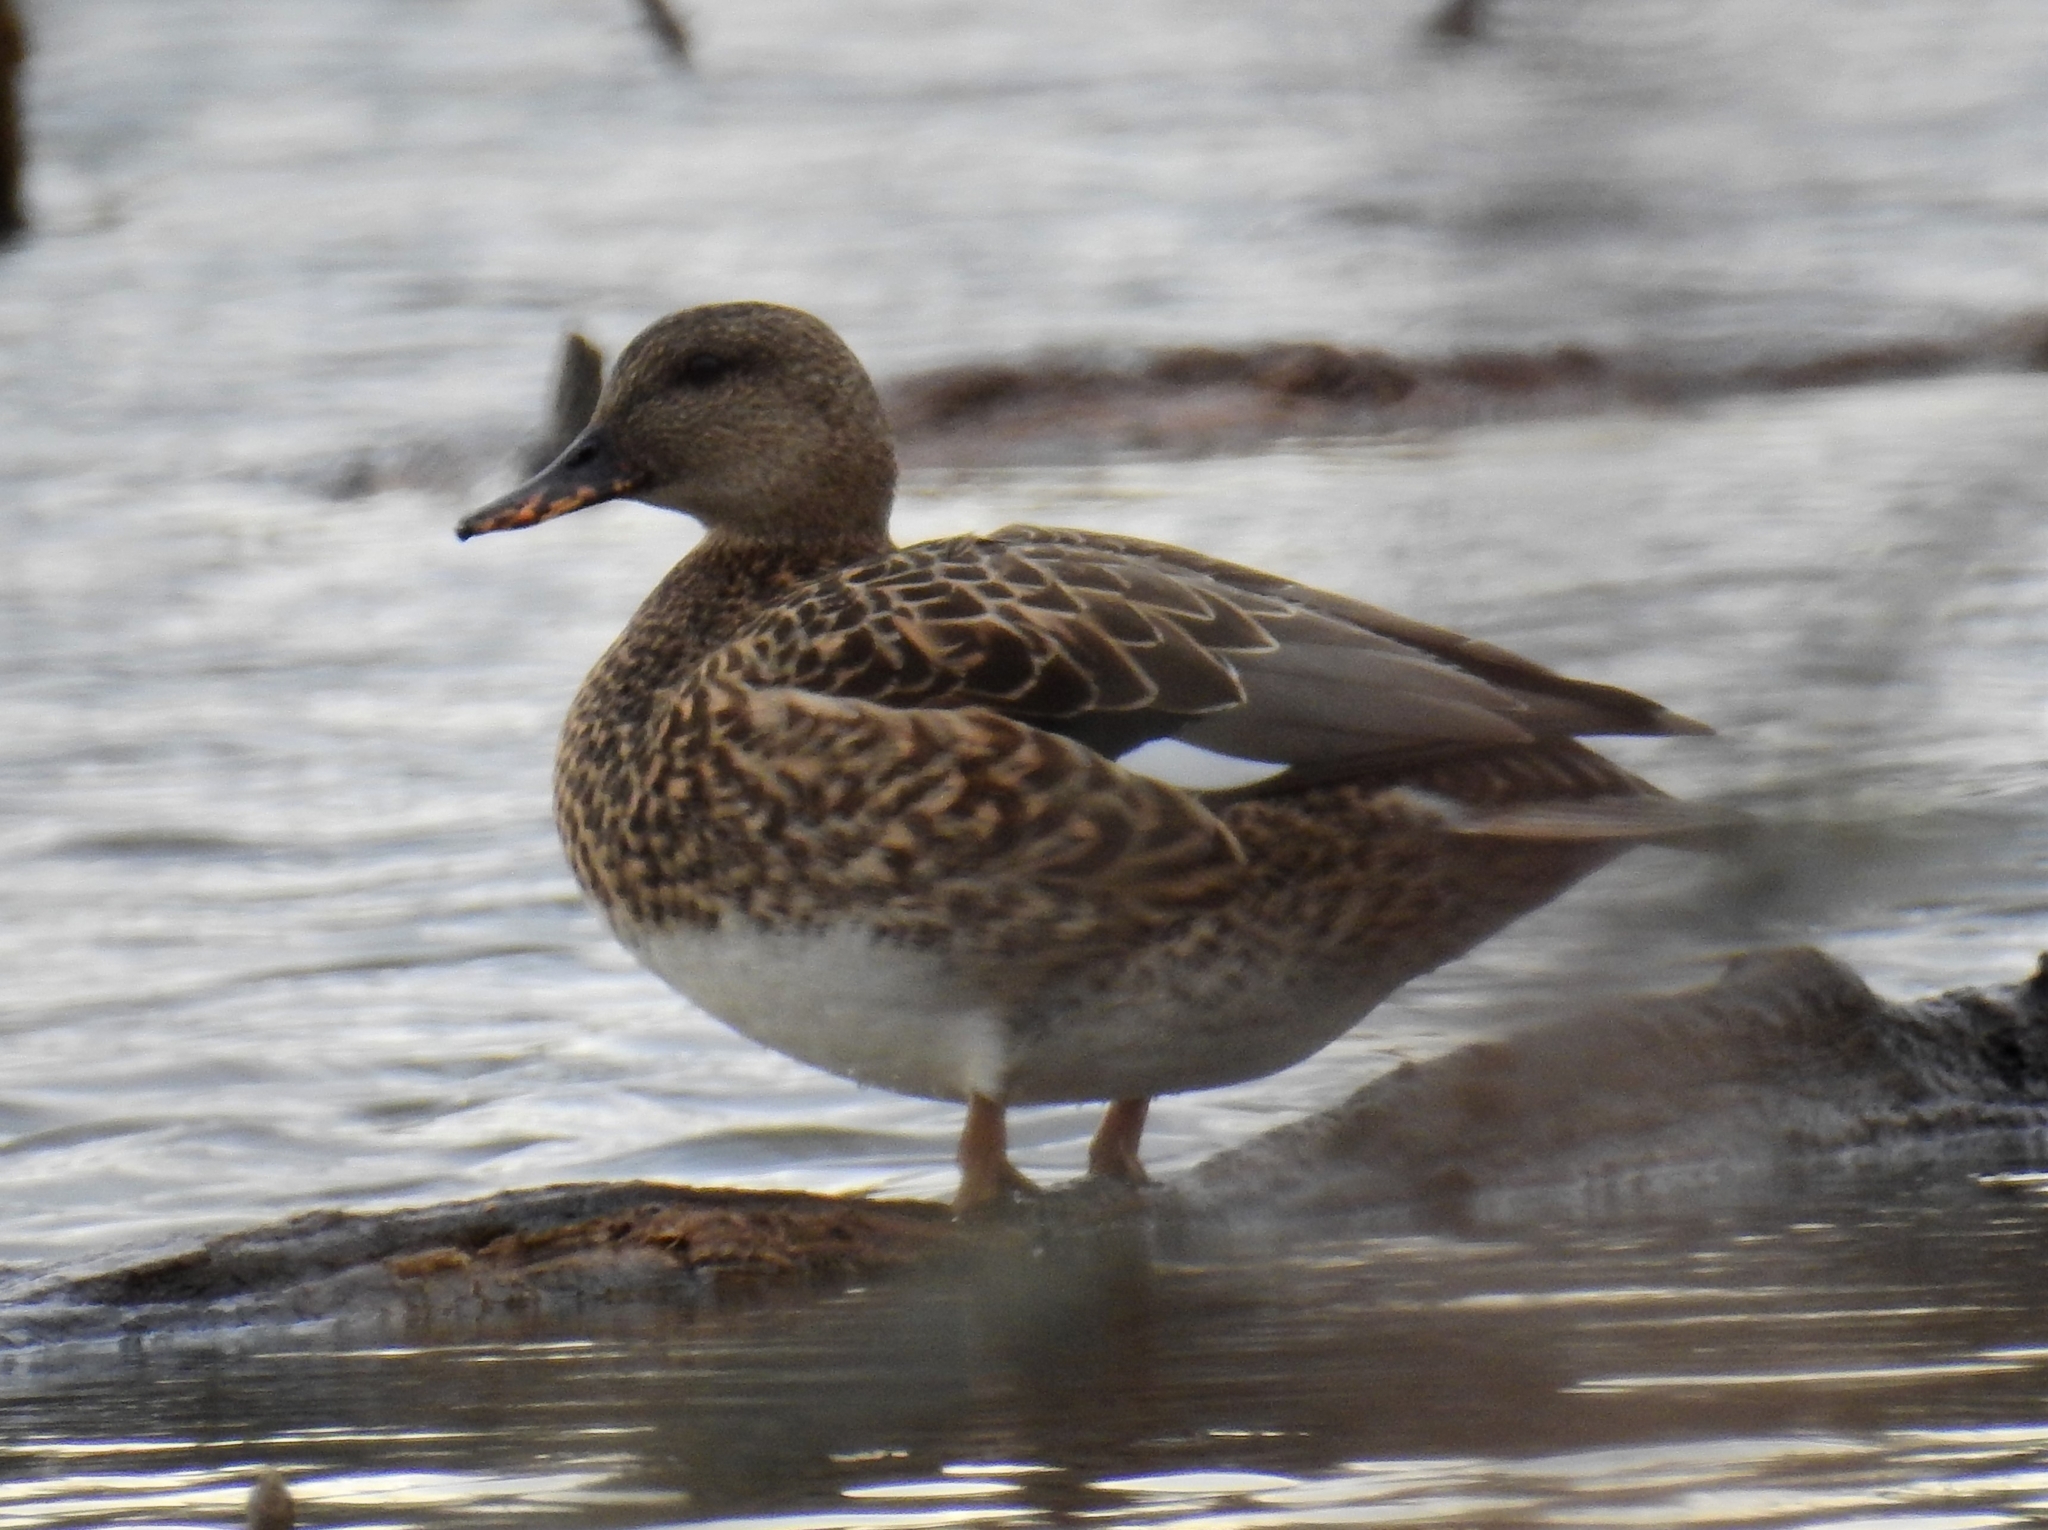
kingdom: Animalia
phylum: Chordata
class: Aves
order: Anseriformes
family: Anatidae
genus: Mareca
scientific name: Mareca strepera
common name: Gadwall
